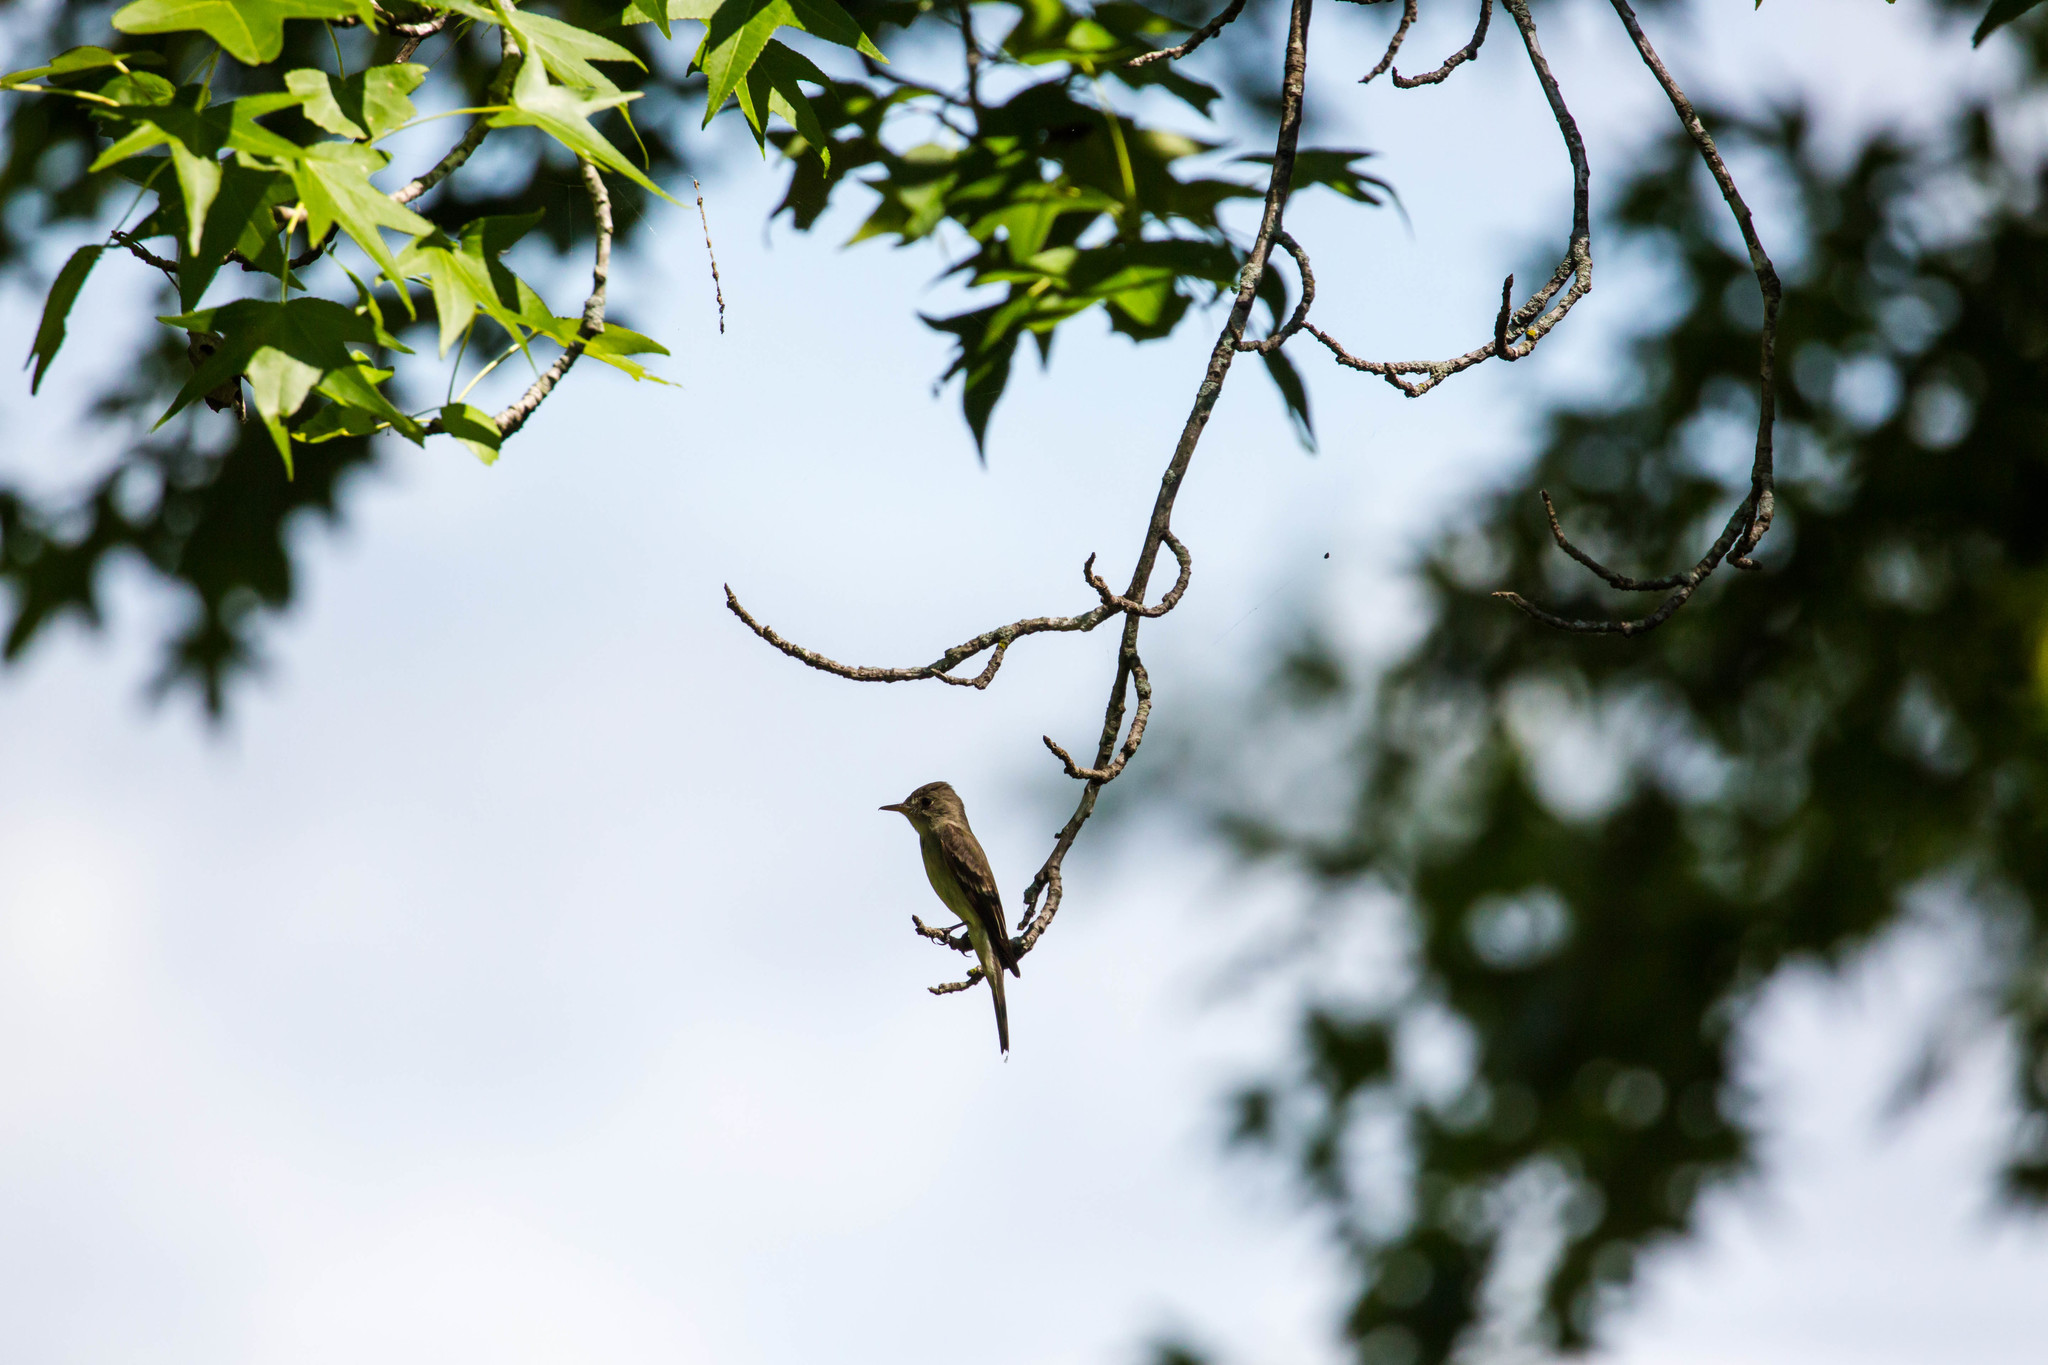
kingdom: Animalia
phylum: Chordata
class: Aves
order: Passeriformes
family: Tyrannidae
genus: Contopus
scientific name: Contopus virens
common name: Eastern wood-pewee
